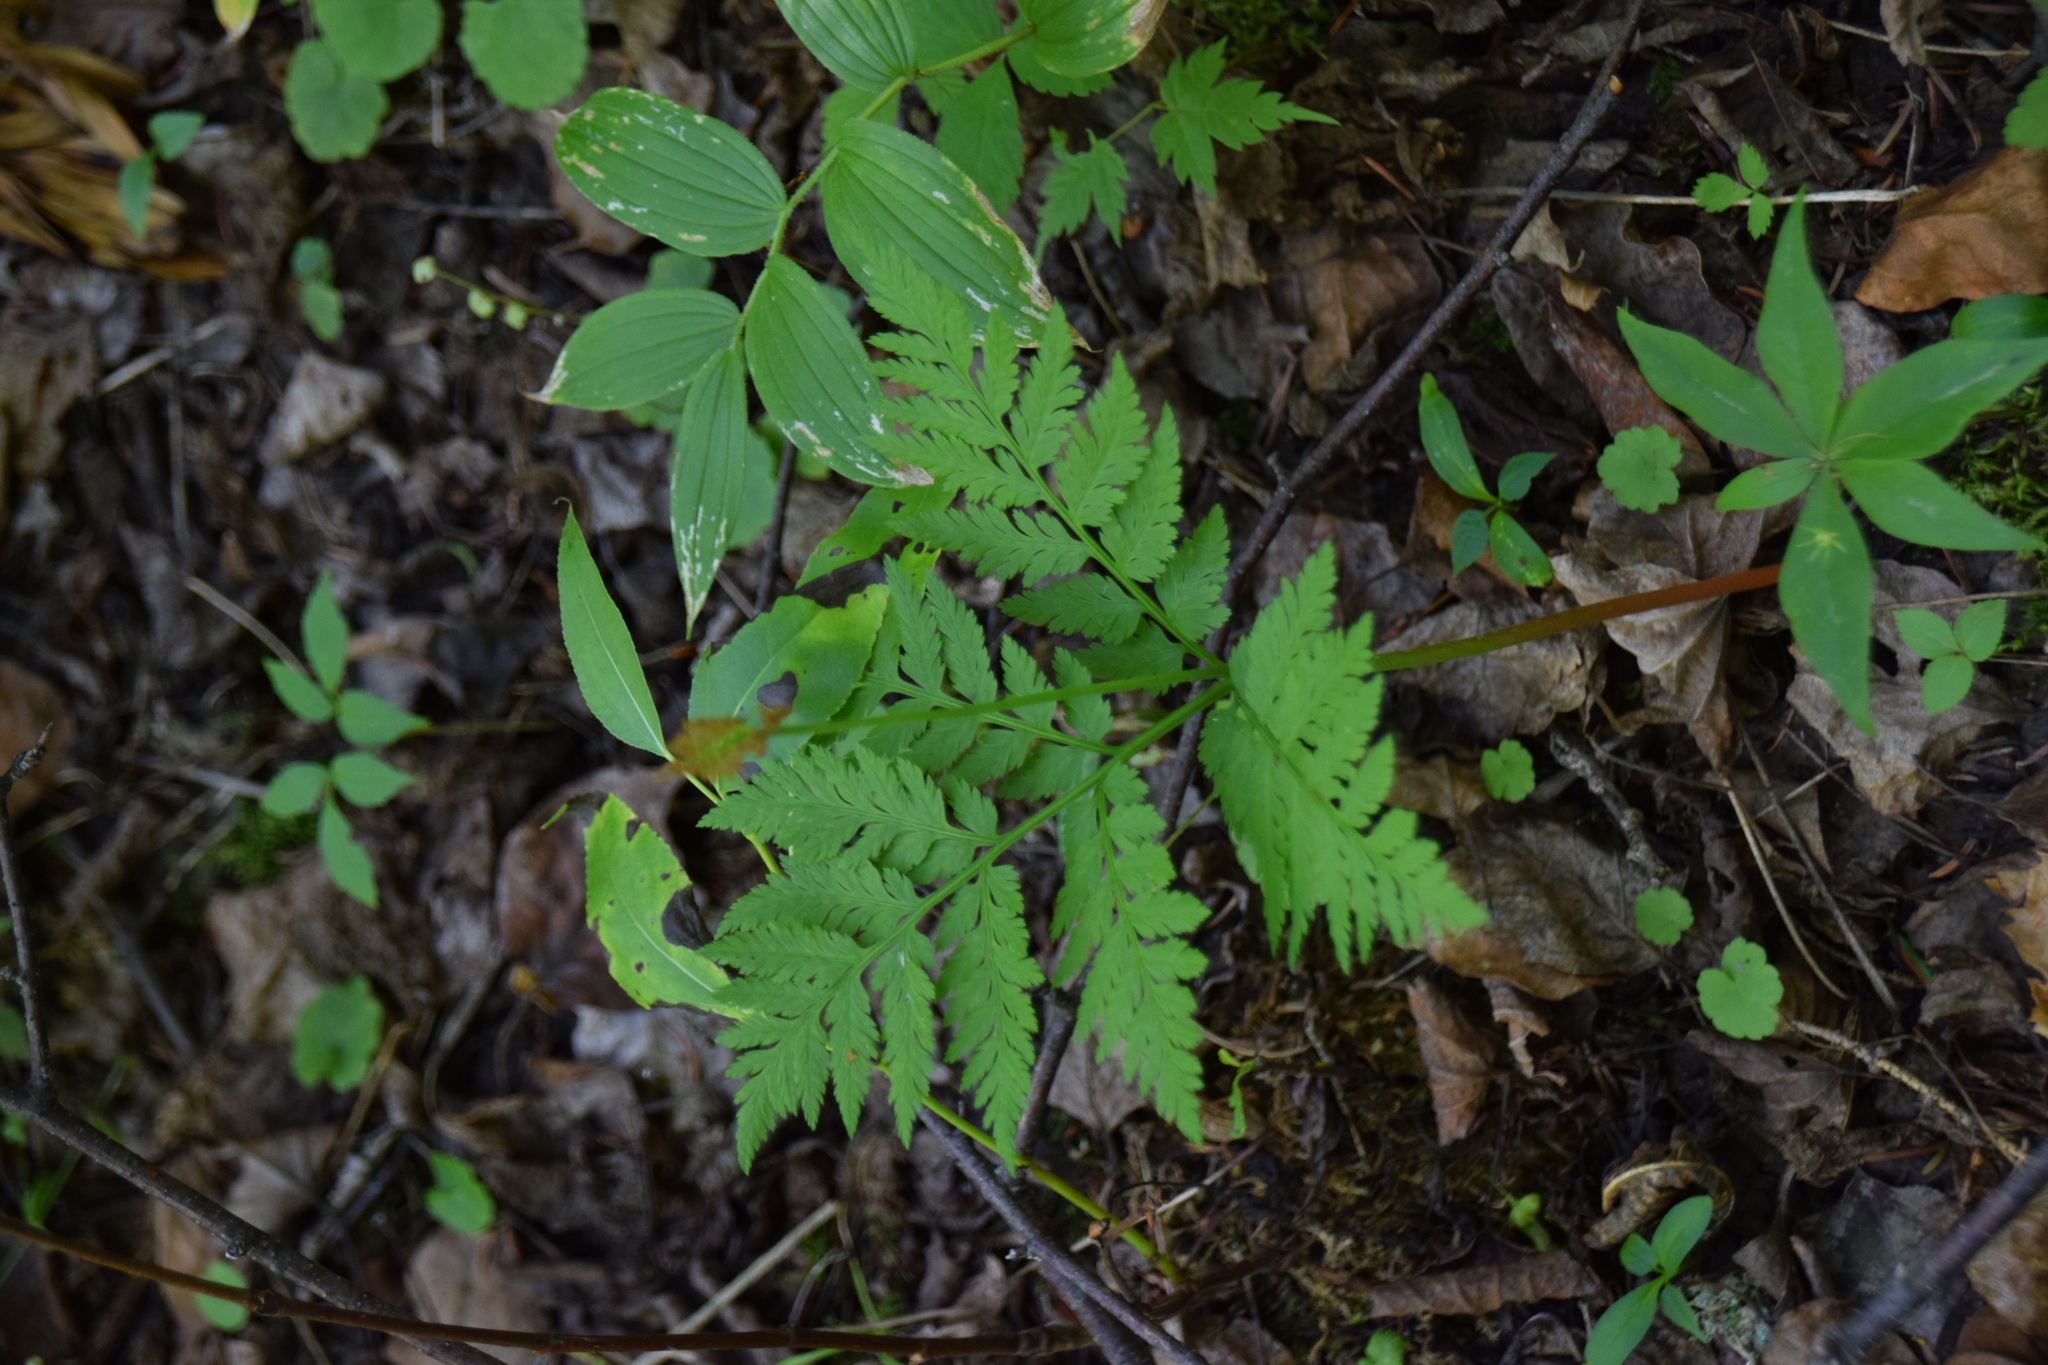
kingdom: Plantae
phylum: Tracheophyta
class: Polypodiopsida
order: Ophioglossales
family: Ophioglossaceae
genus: Botrypus
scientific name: Botrypus virginianus
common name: Common grapefern
